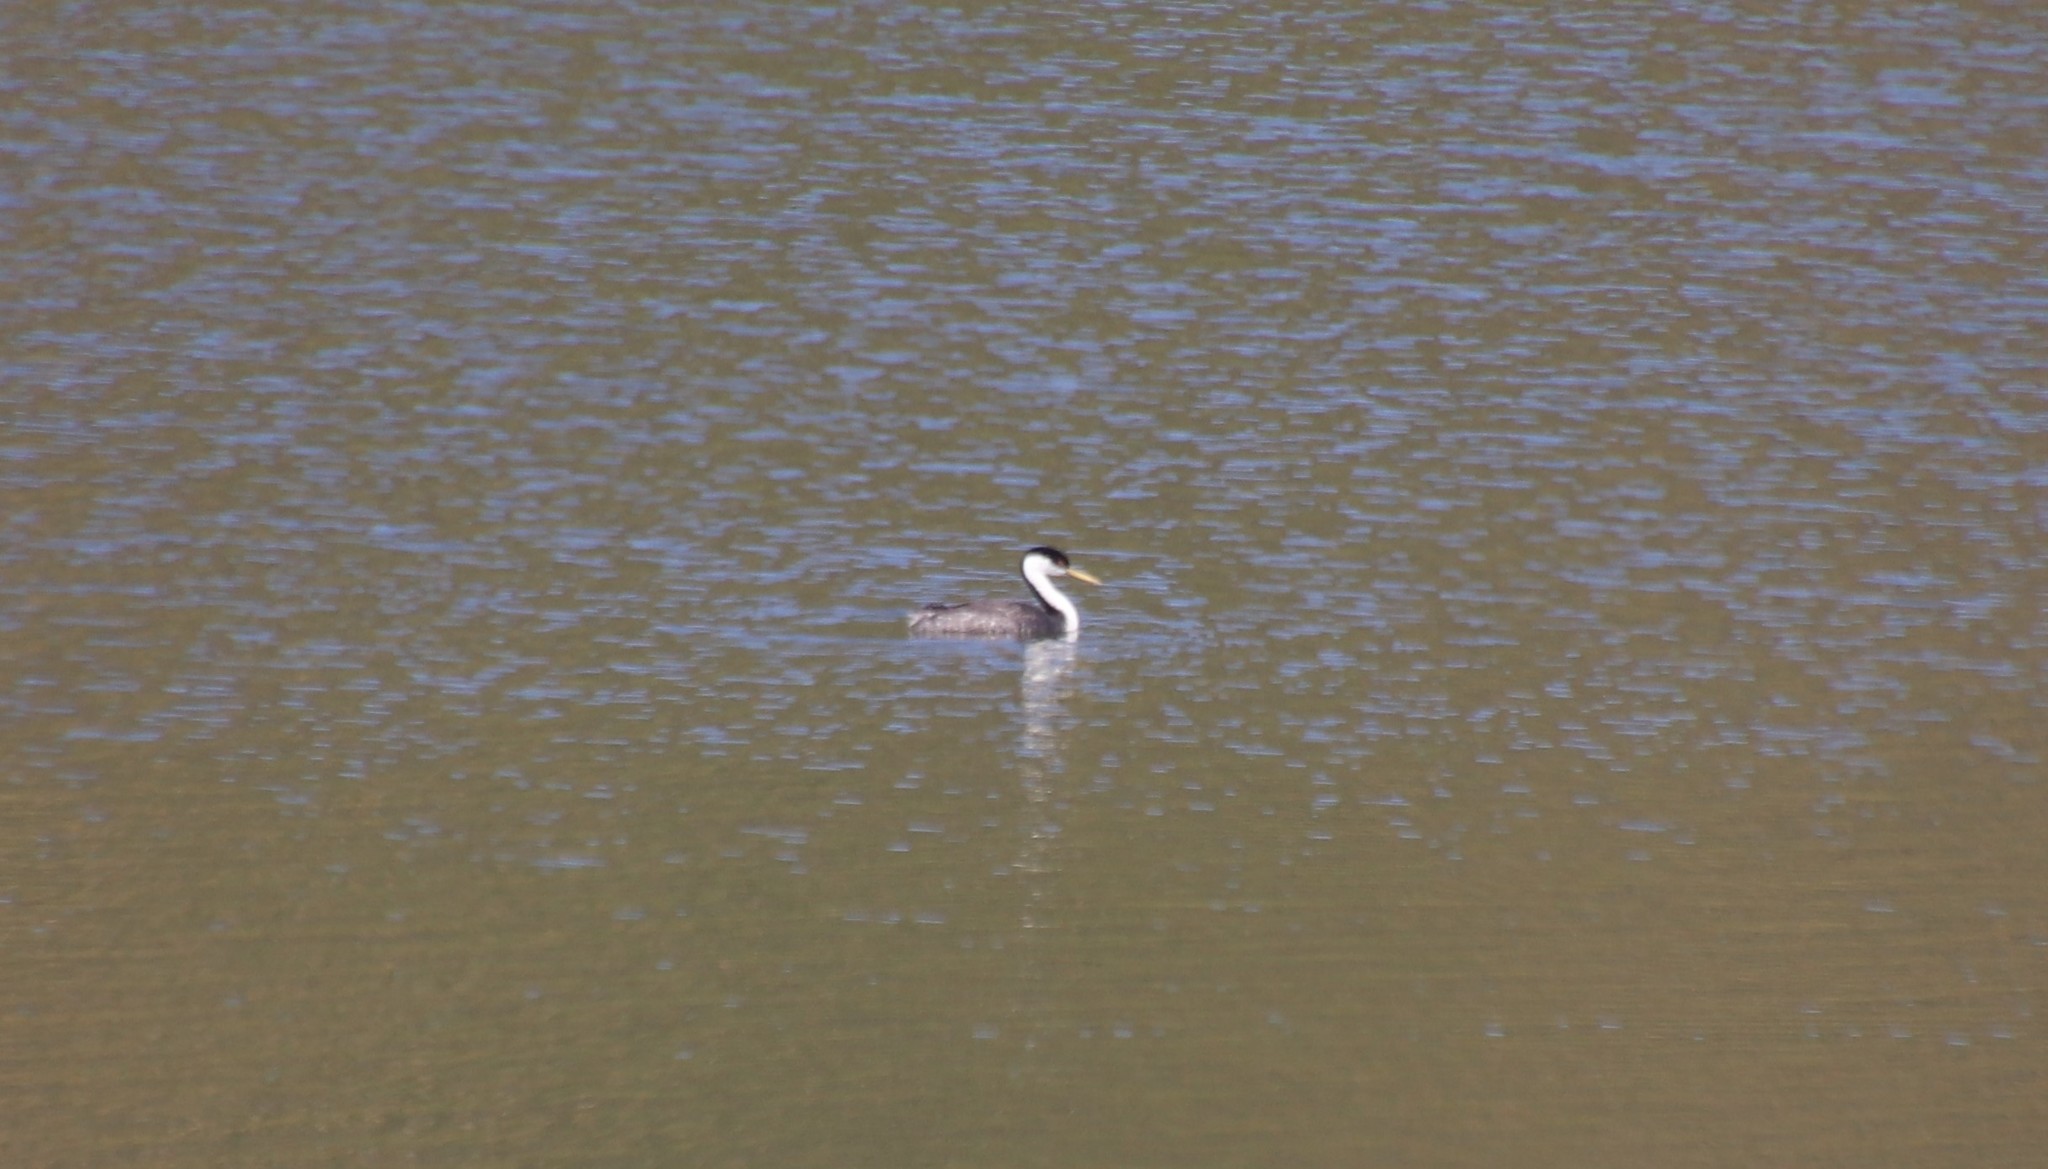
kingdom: Animalia
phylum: Chordata
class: Aves
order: Podicipediformes
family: Podicipedidae
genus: Aechmophorus
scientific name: Aechmophorus occidentalis
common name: Western grebe
